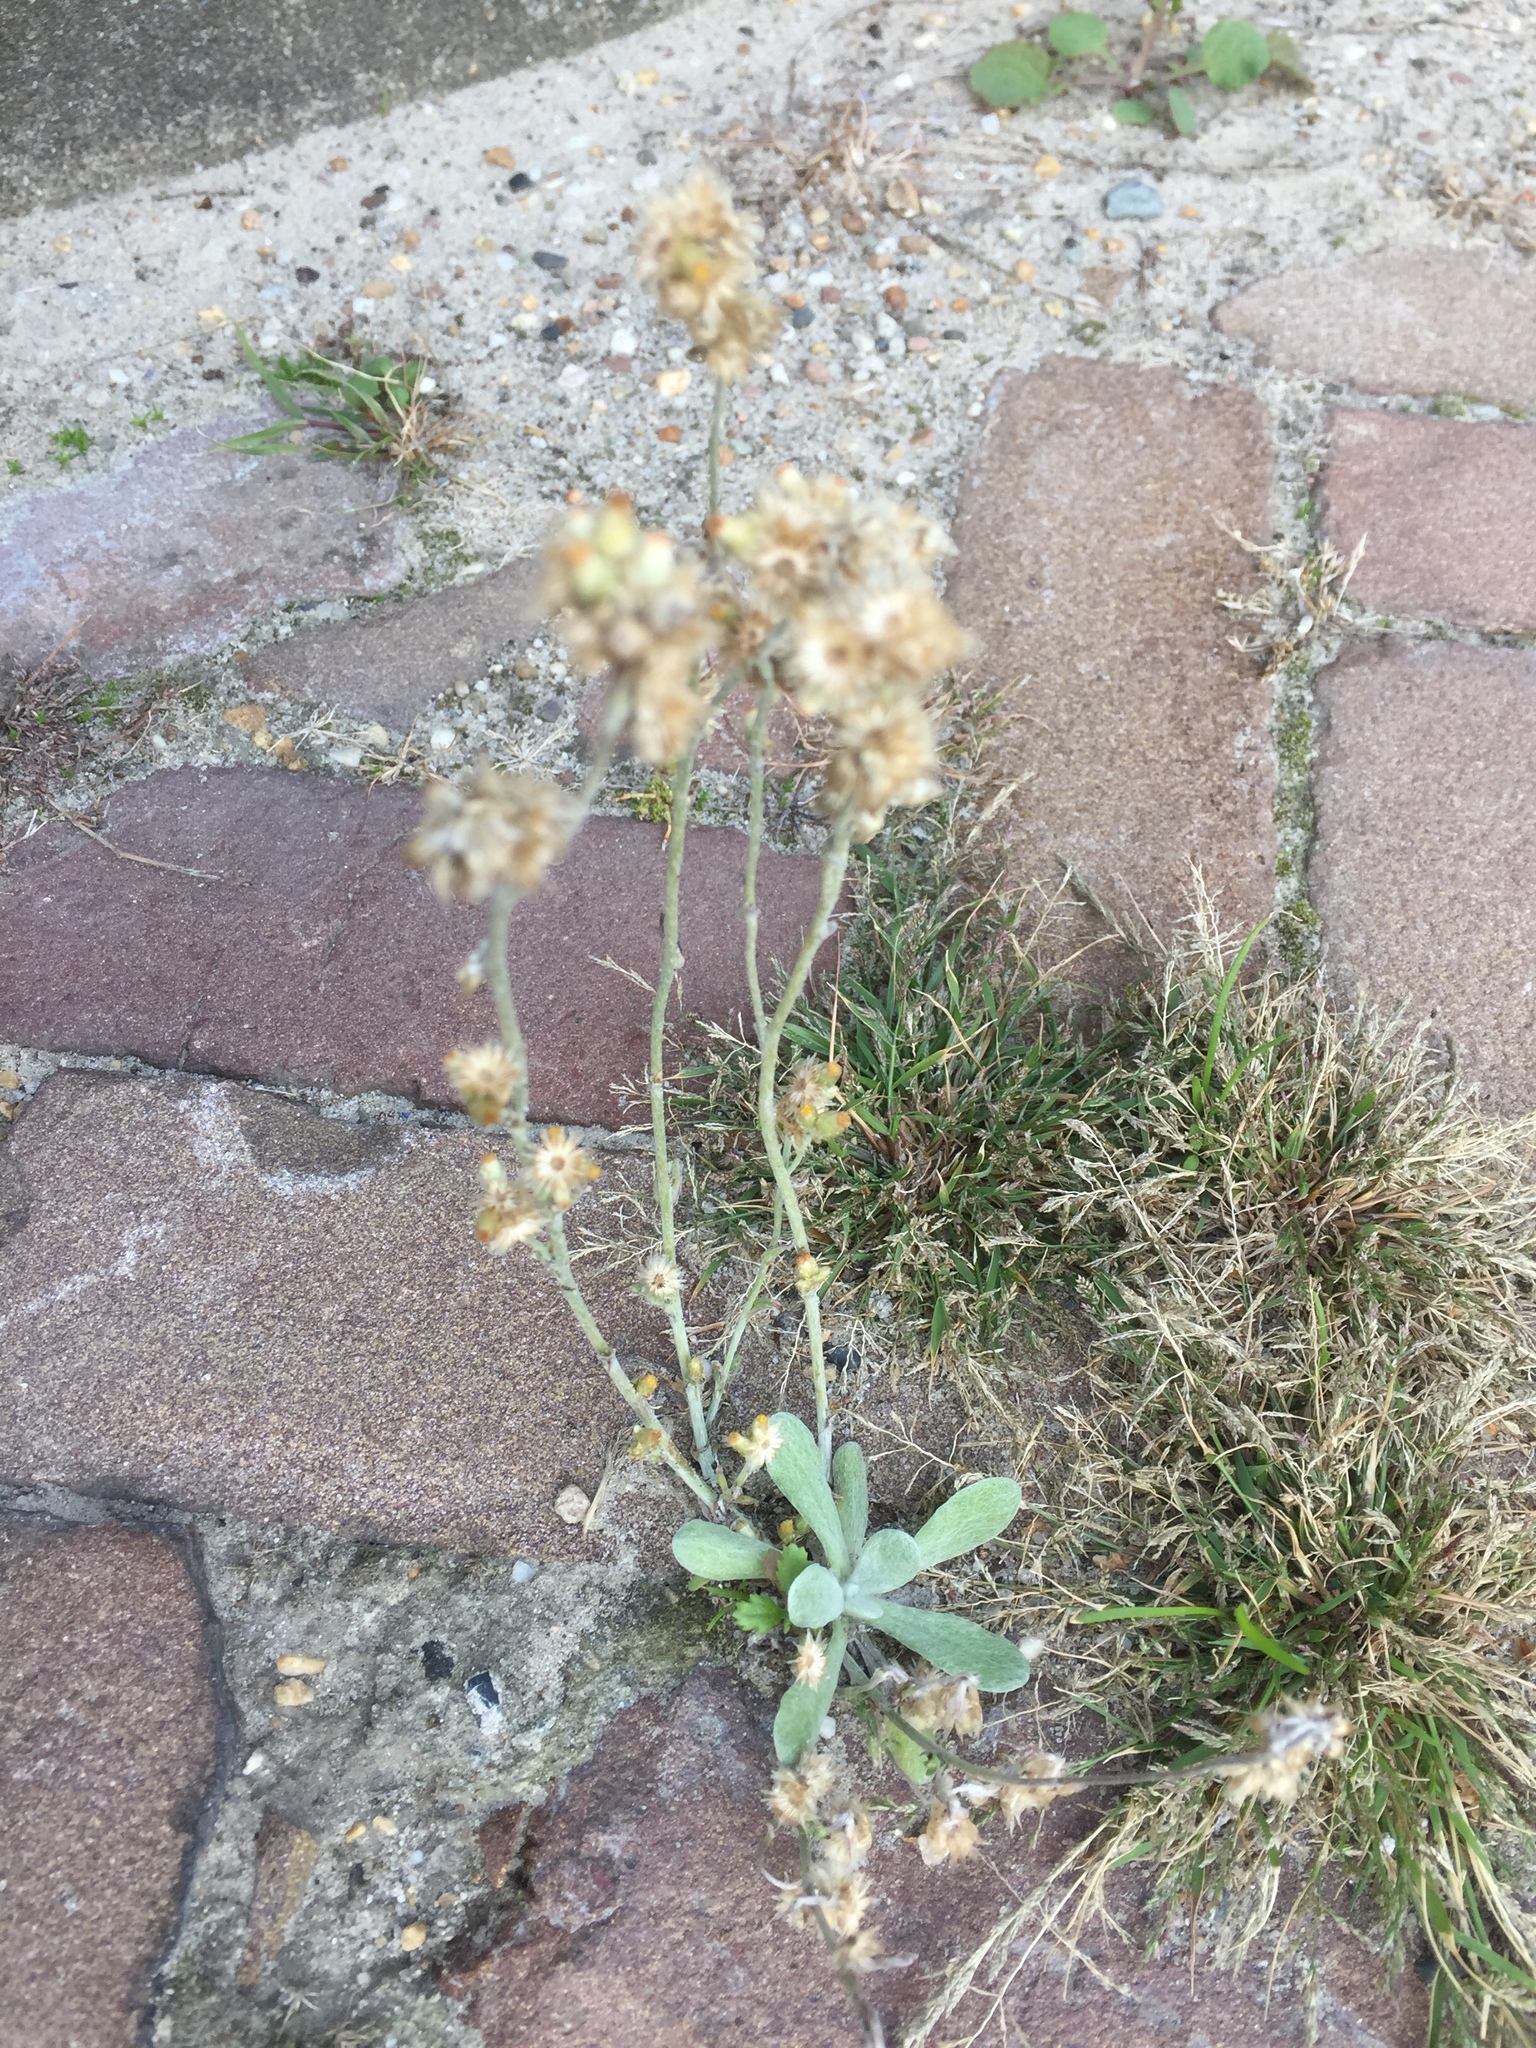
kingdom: Plantae
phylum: Tracheophyta
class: Magnoliopsida
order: Asterales
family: Asteraceae
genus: Helichrysum
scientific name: Helichrysum luteoalbum
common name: Daisy
